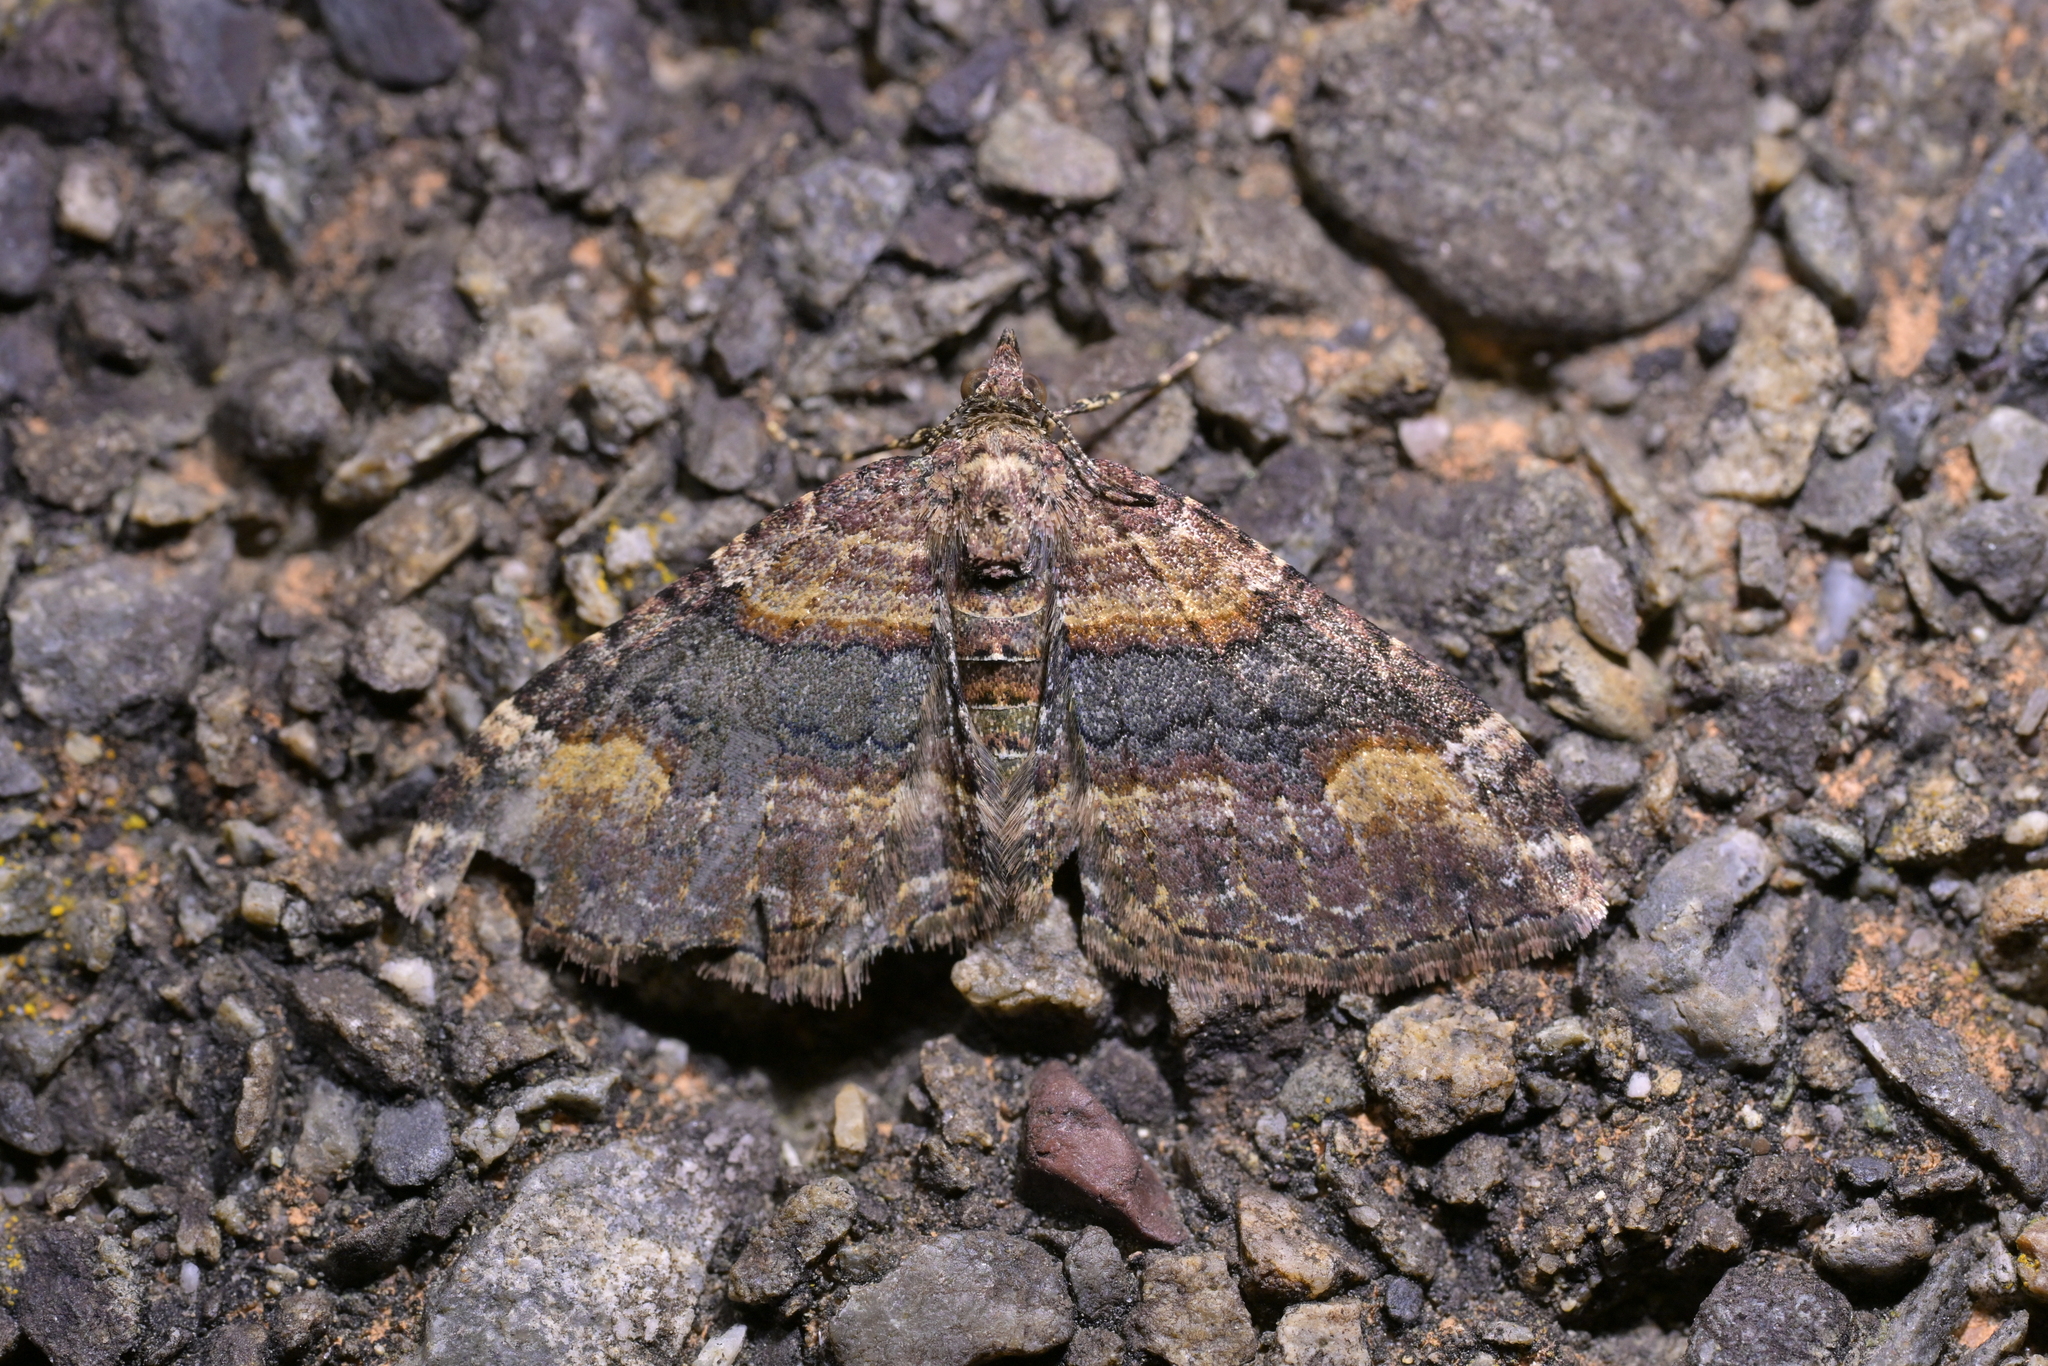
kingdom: Animalia
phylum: Arthropoda
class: Insecta
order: Lepidoptera
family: Geometridae
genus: Epyaxa
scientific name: Epyaxa lucidata
